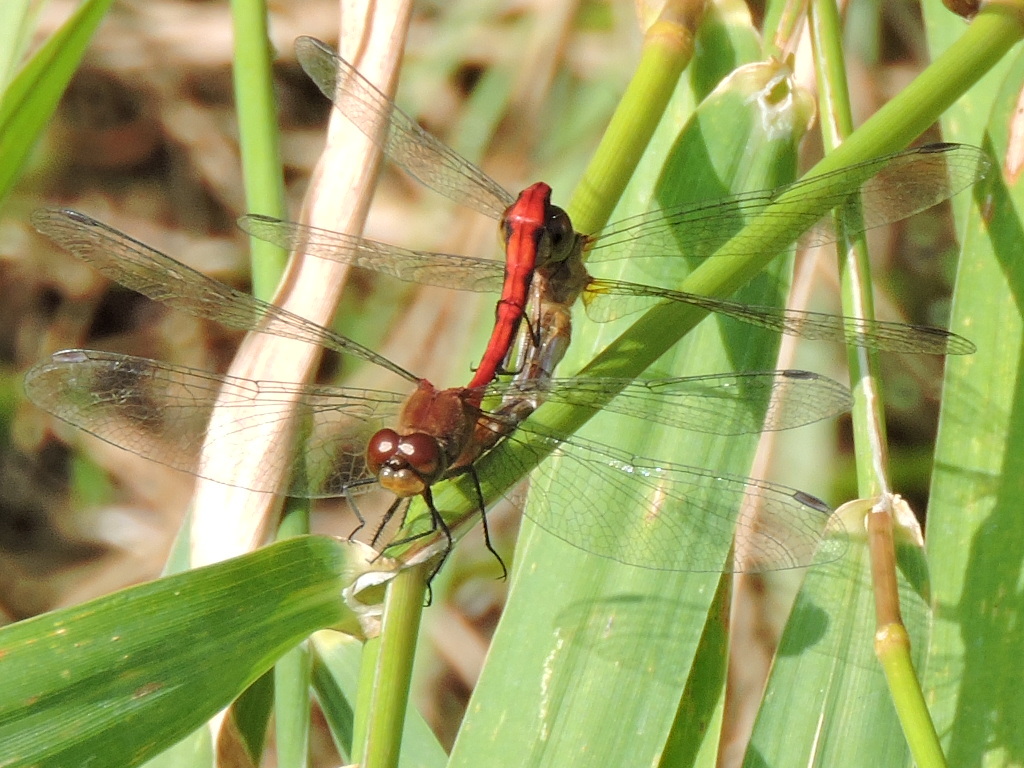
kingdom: Animalia
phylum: Arthropoda
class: Insecta
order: Odonata
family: Libellulidae
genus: Sympetrum
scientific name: Sympetrum
